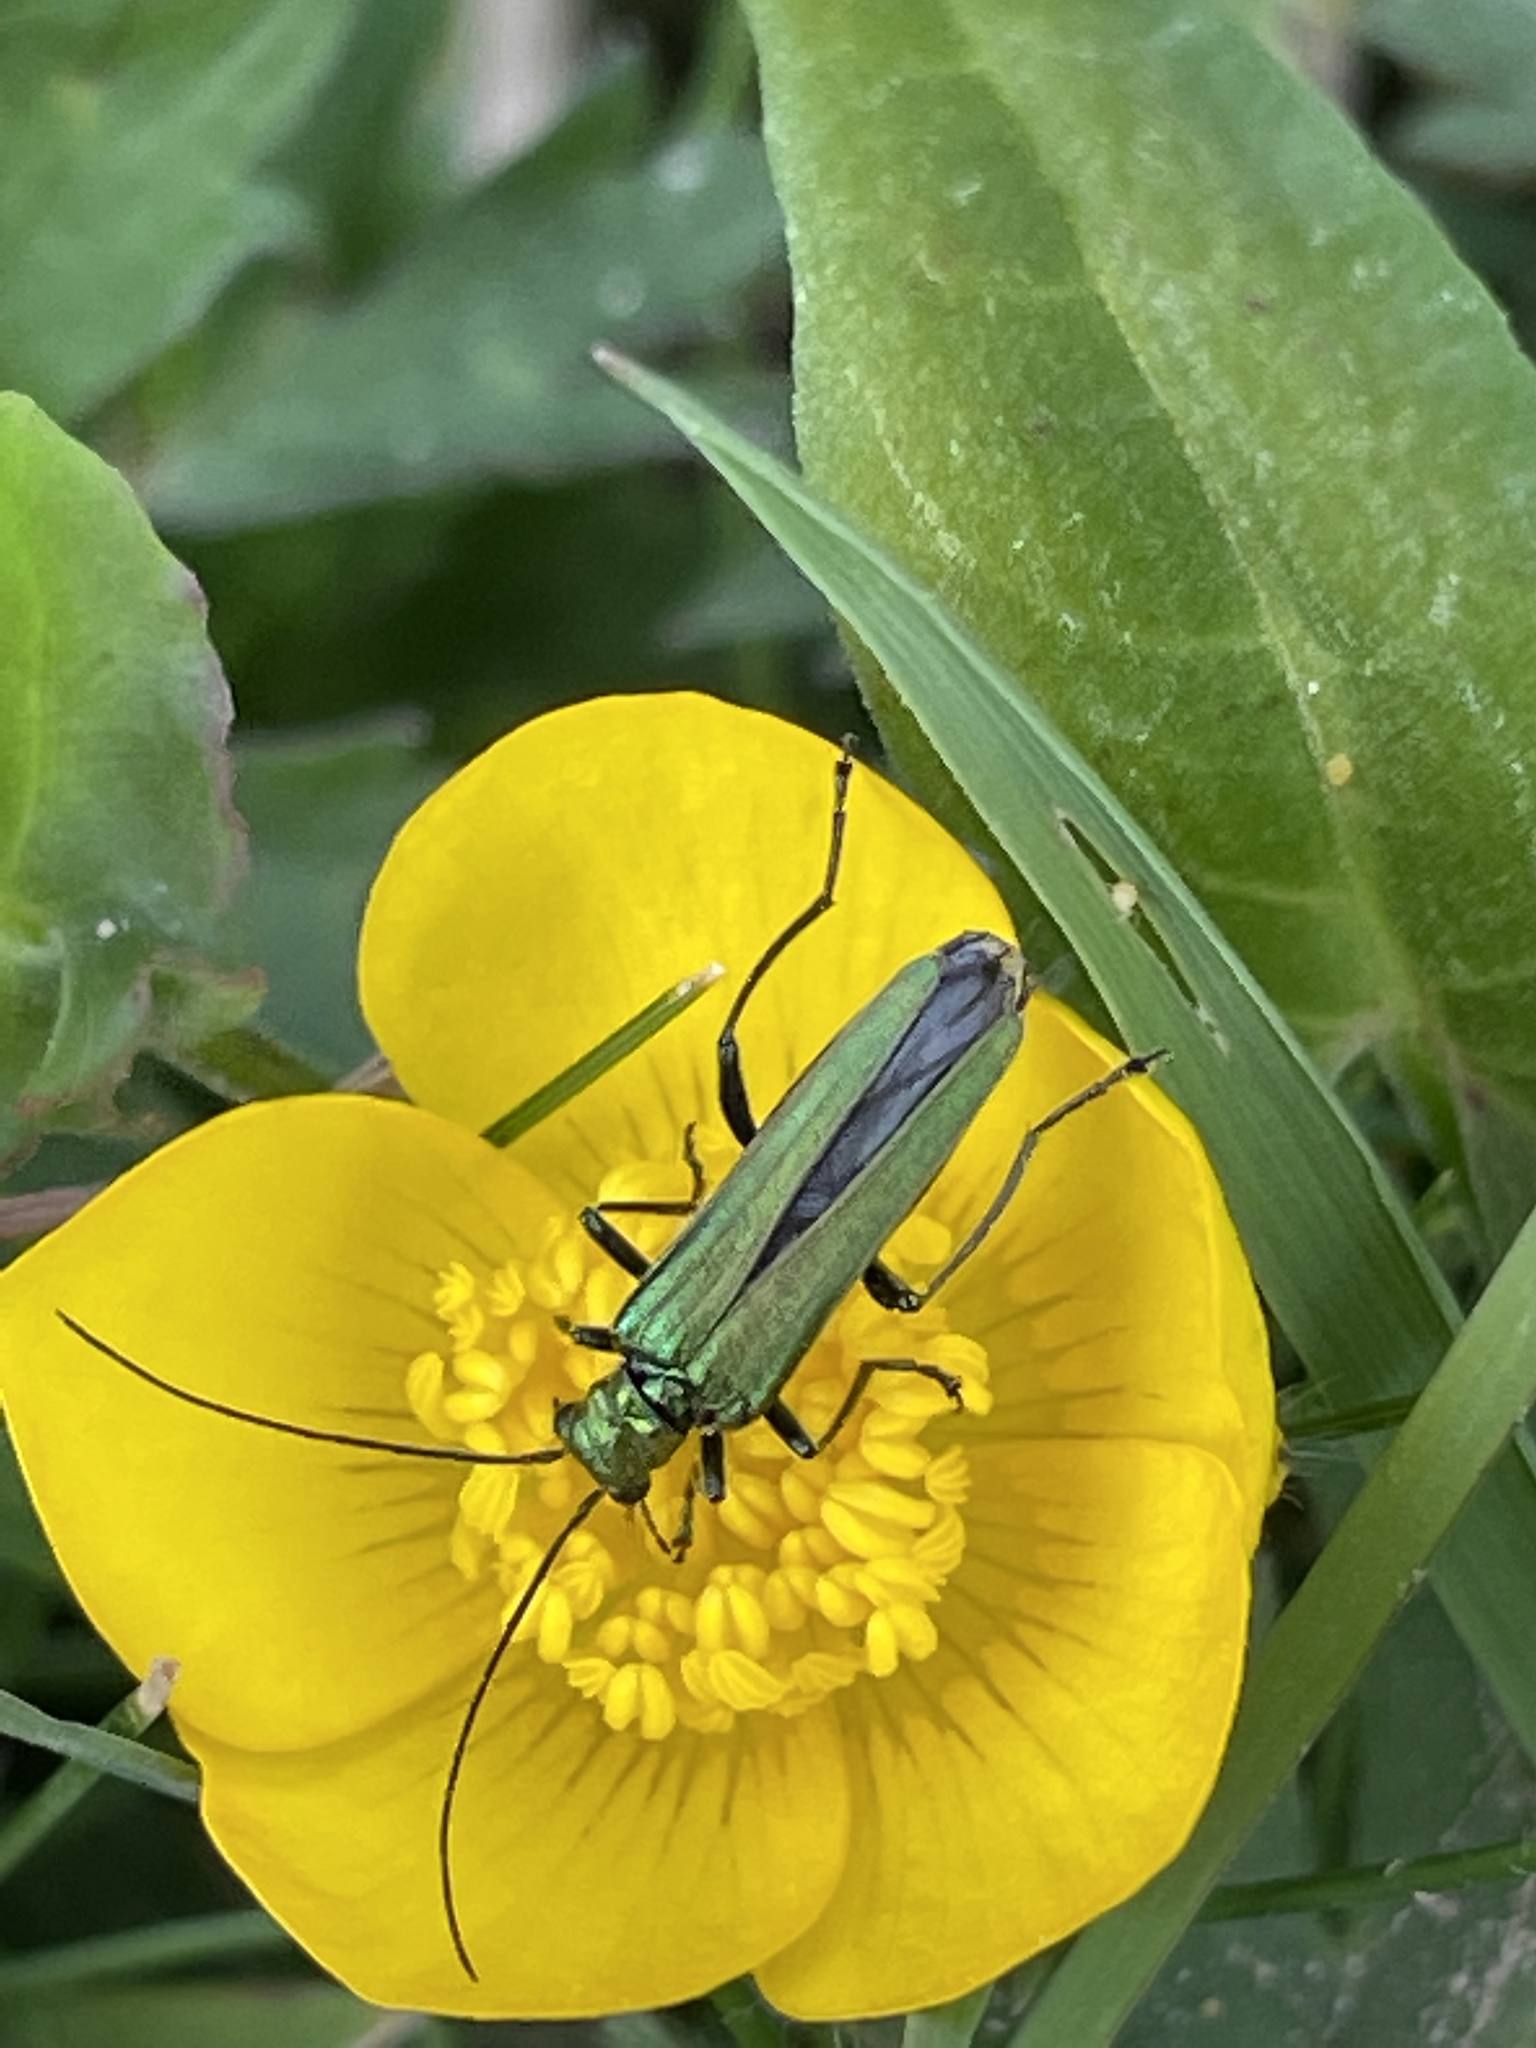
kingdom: Animalia
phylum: Arthropoda
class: Insecta
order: Coleoptera
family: Oedemeridae
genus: Oedemera
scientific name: Oedemera nobilis
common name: Swollen-thighed beetle
